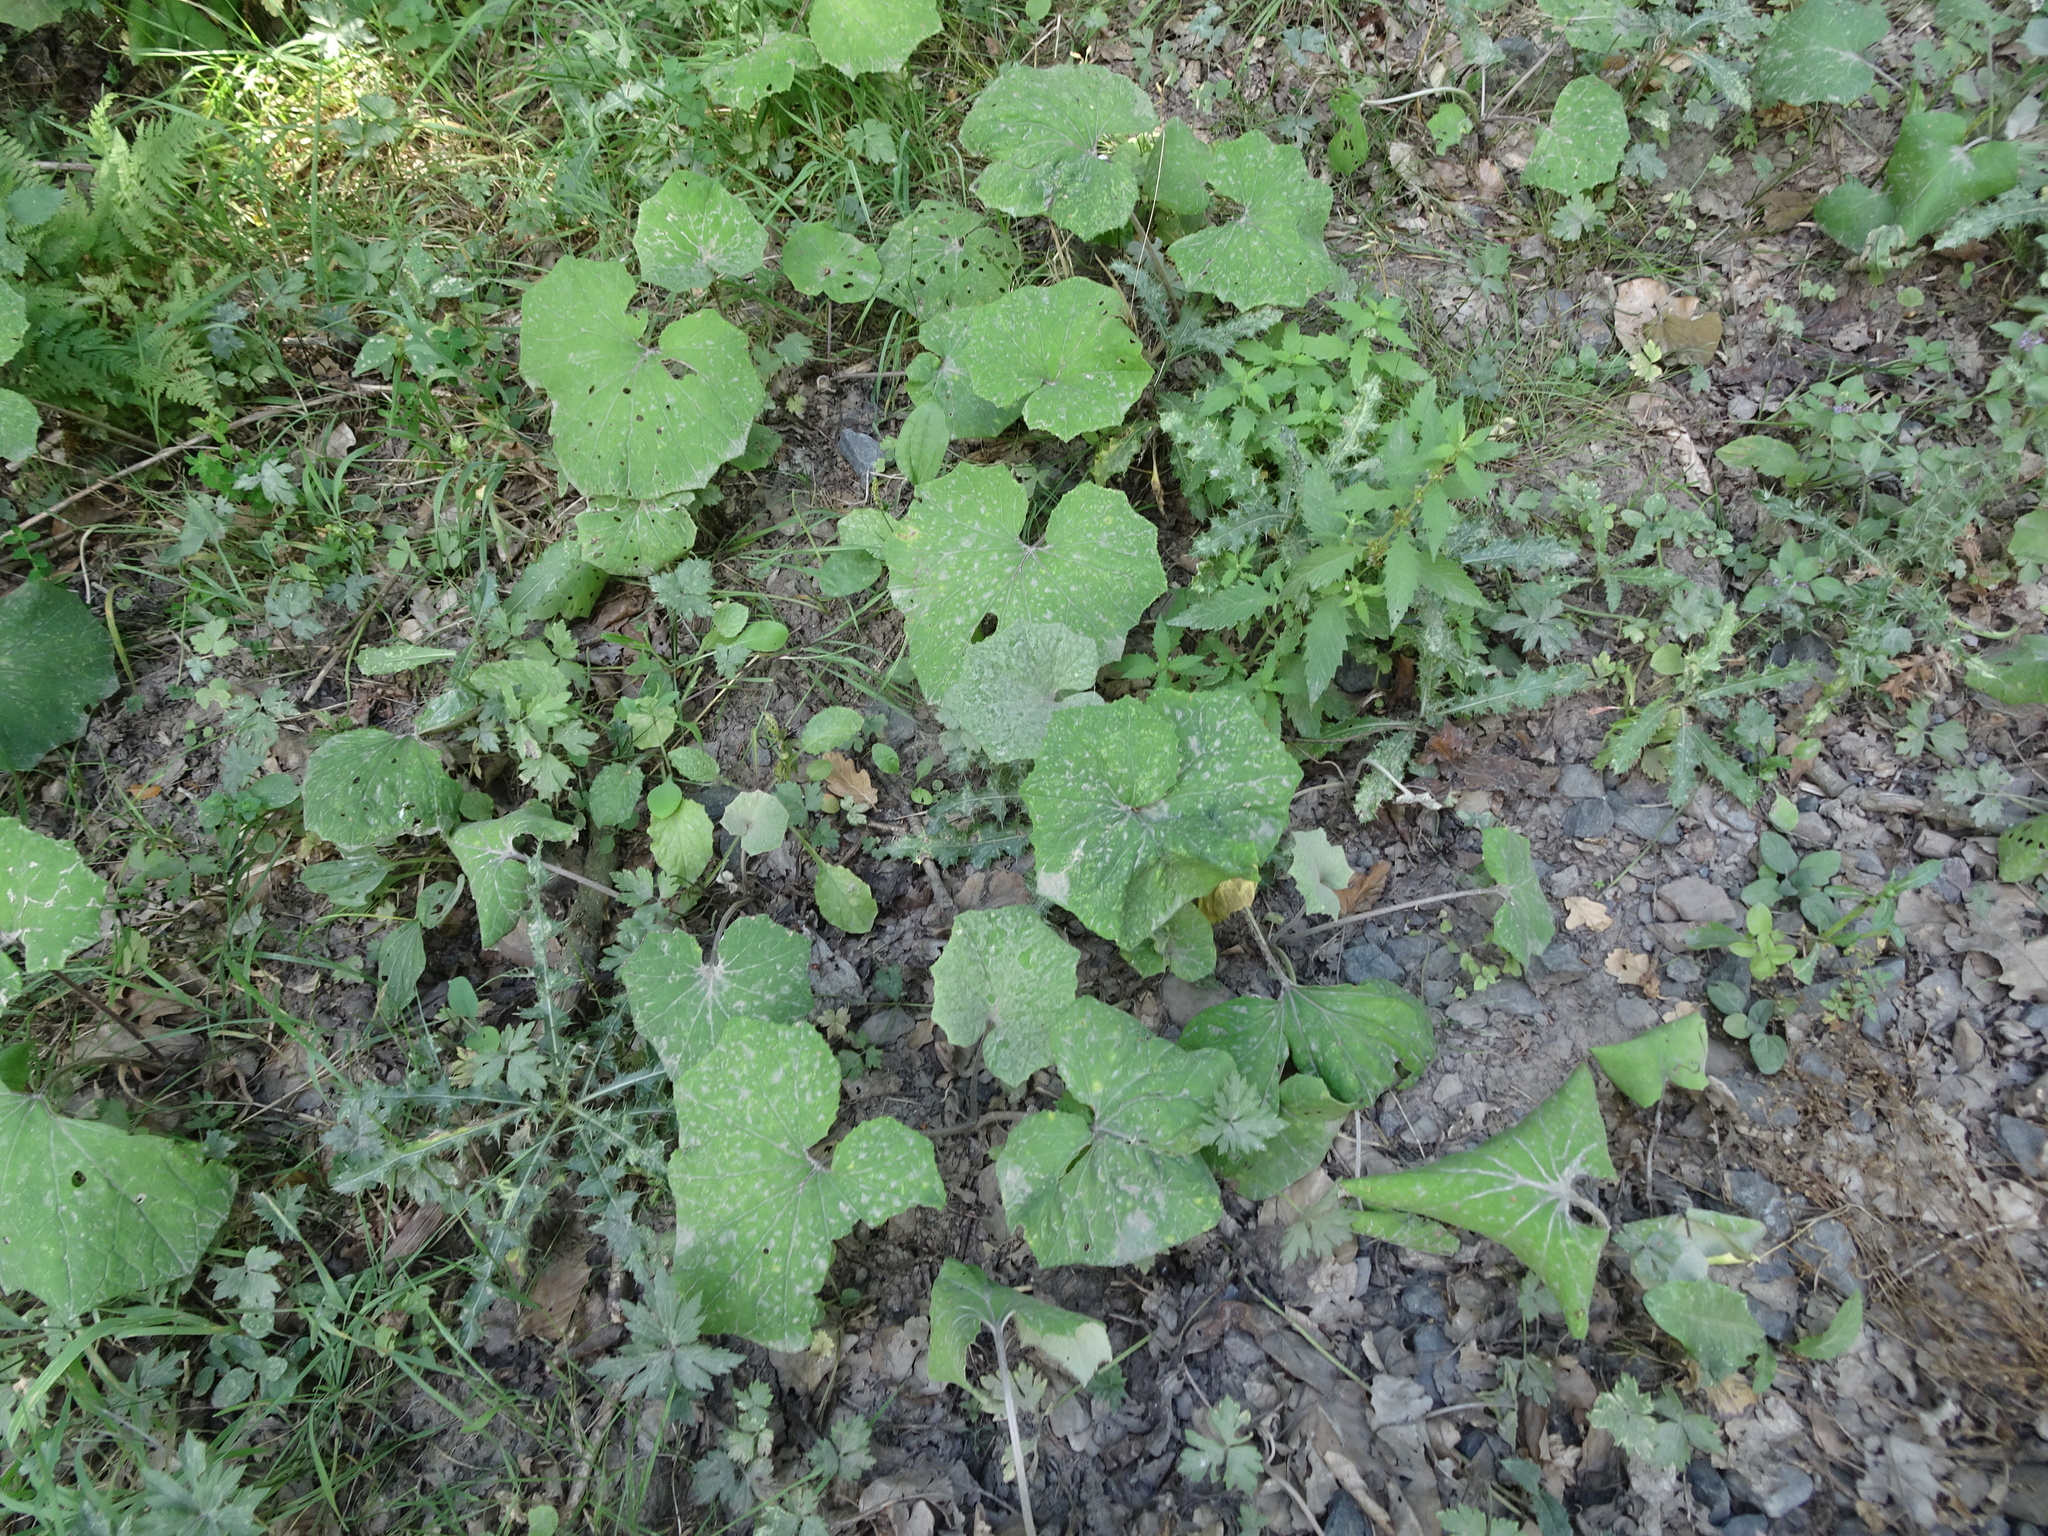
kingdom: Plantae
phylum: Tracheophyta
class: Magnoliopsida
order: Asterales
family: Asteraceae
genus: Tussilago
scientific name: Tussilago farfara
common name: Coltsfoot
